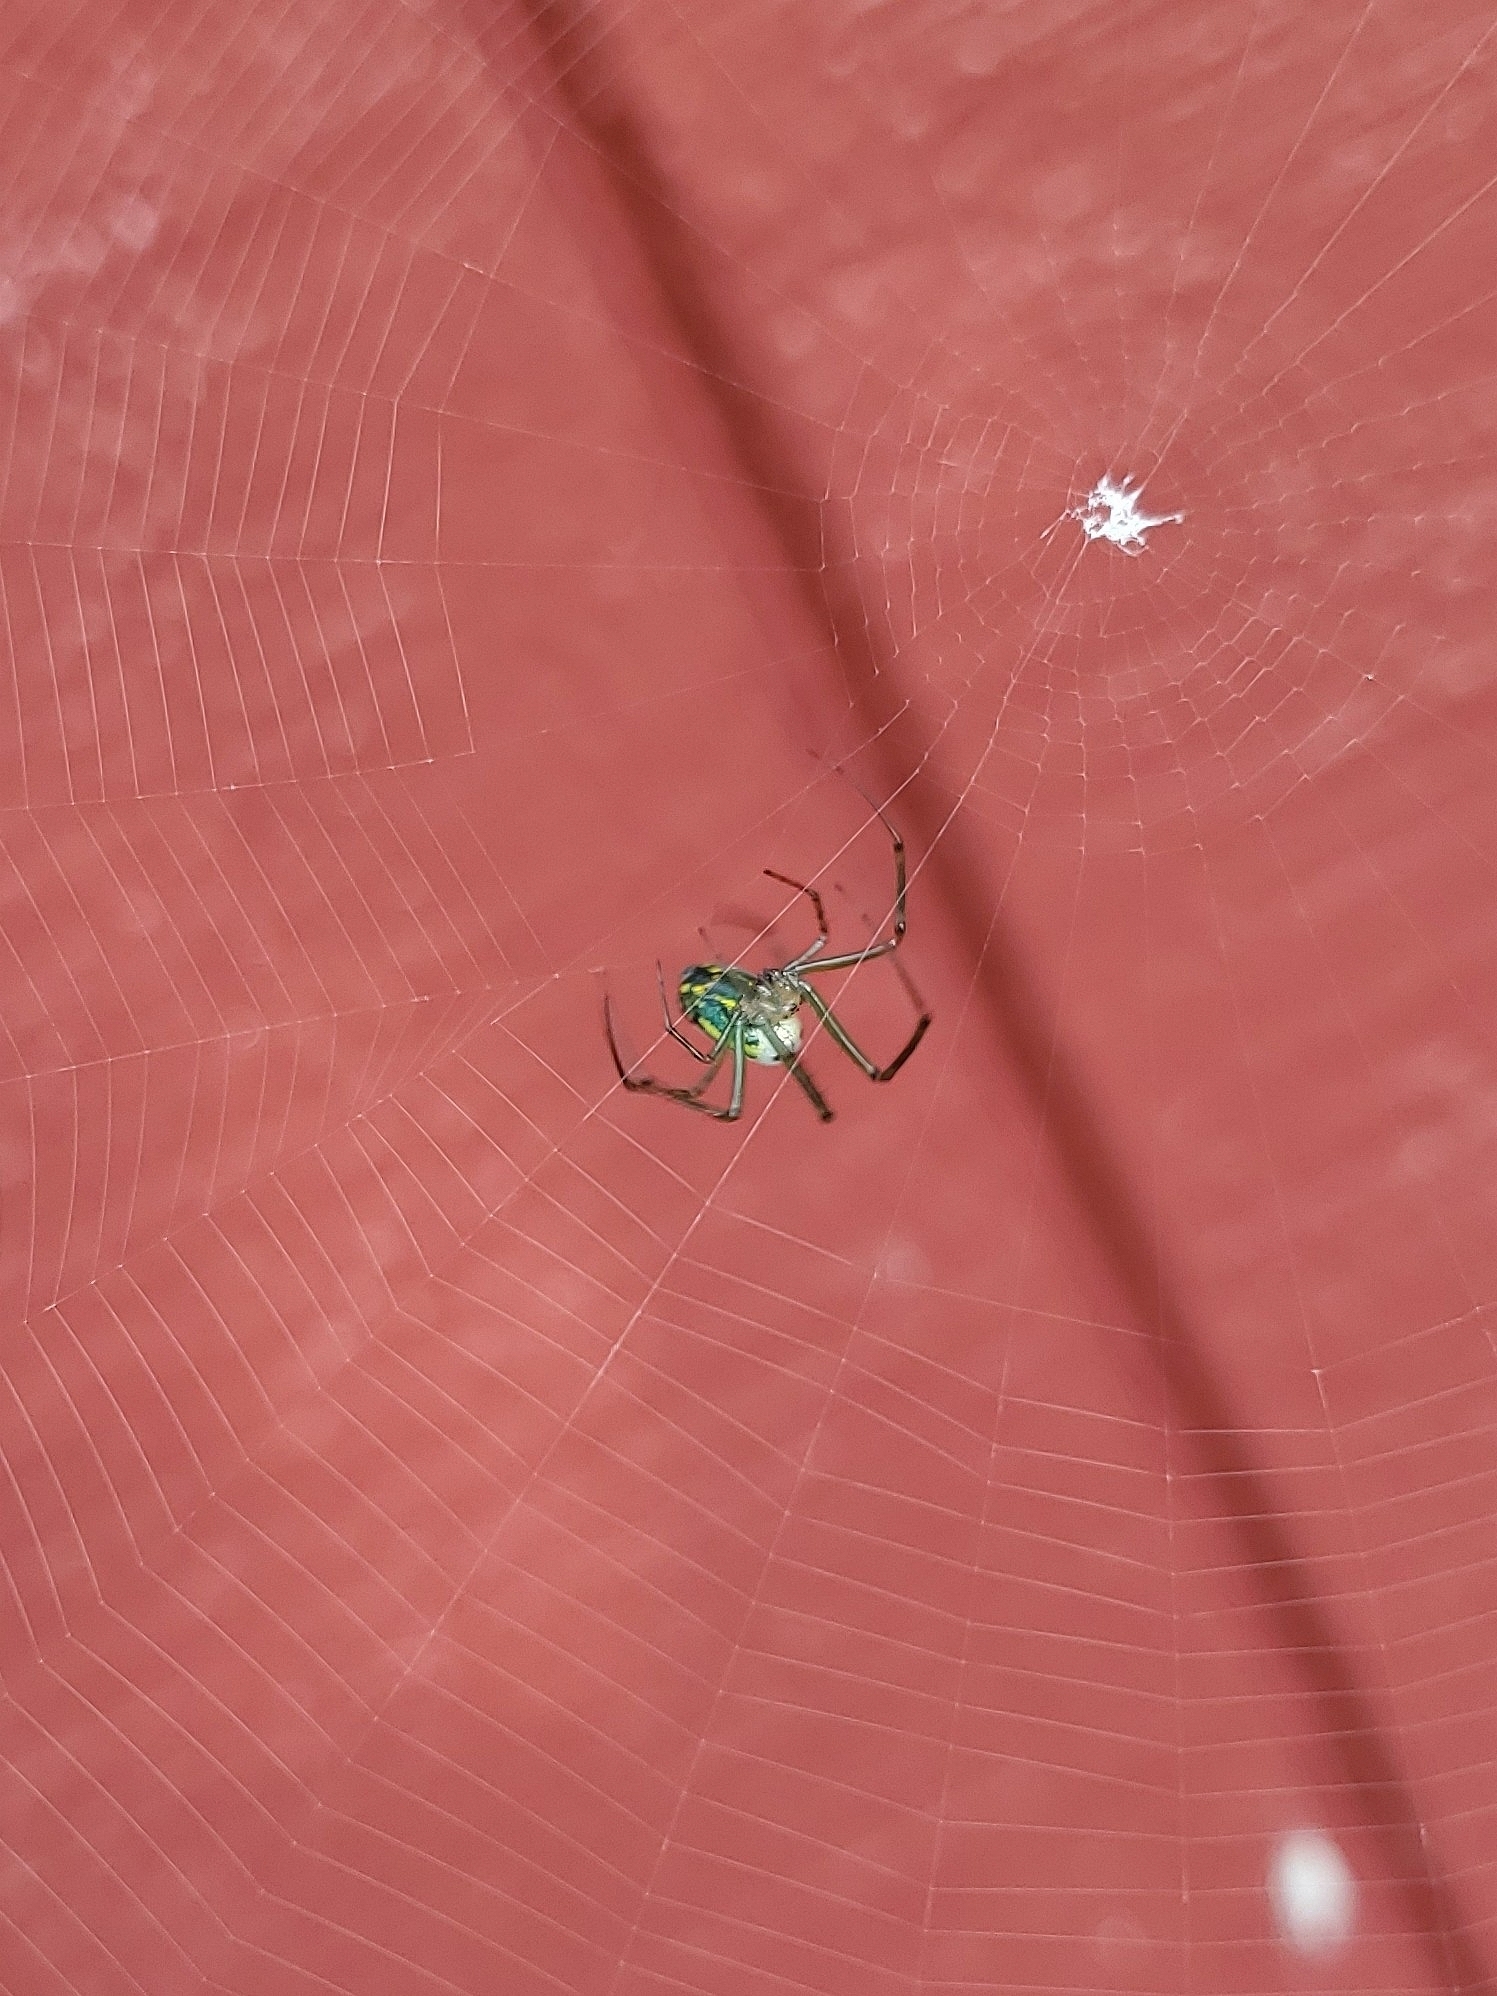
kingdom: Animalia
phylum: Arthropoda
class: Arachnida
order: Araneae
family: Tetragnathidae
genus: Leucauge
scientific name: Leucauge venusta
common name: Longjawed orb weavers
